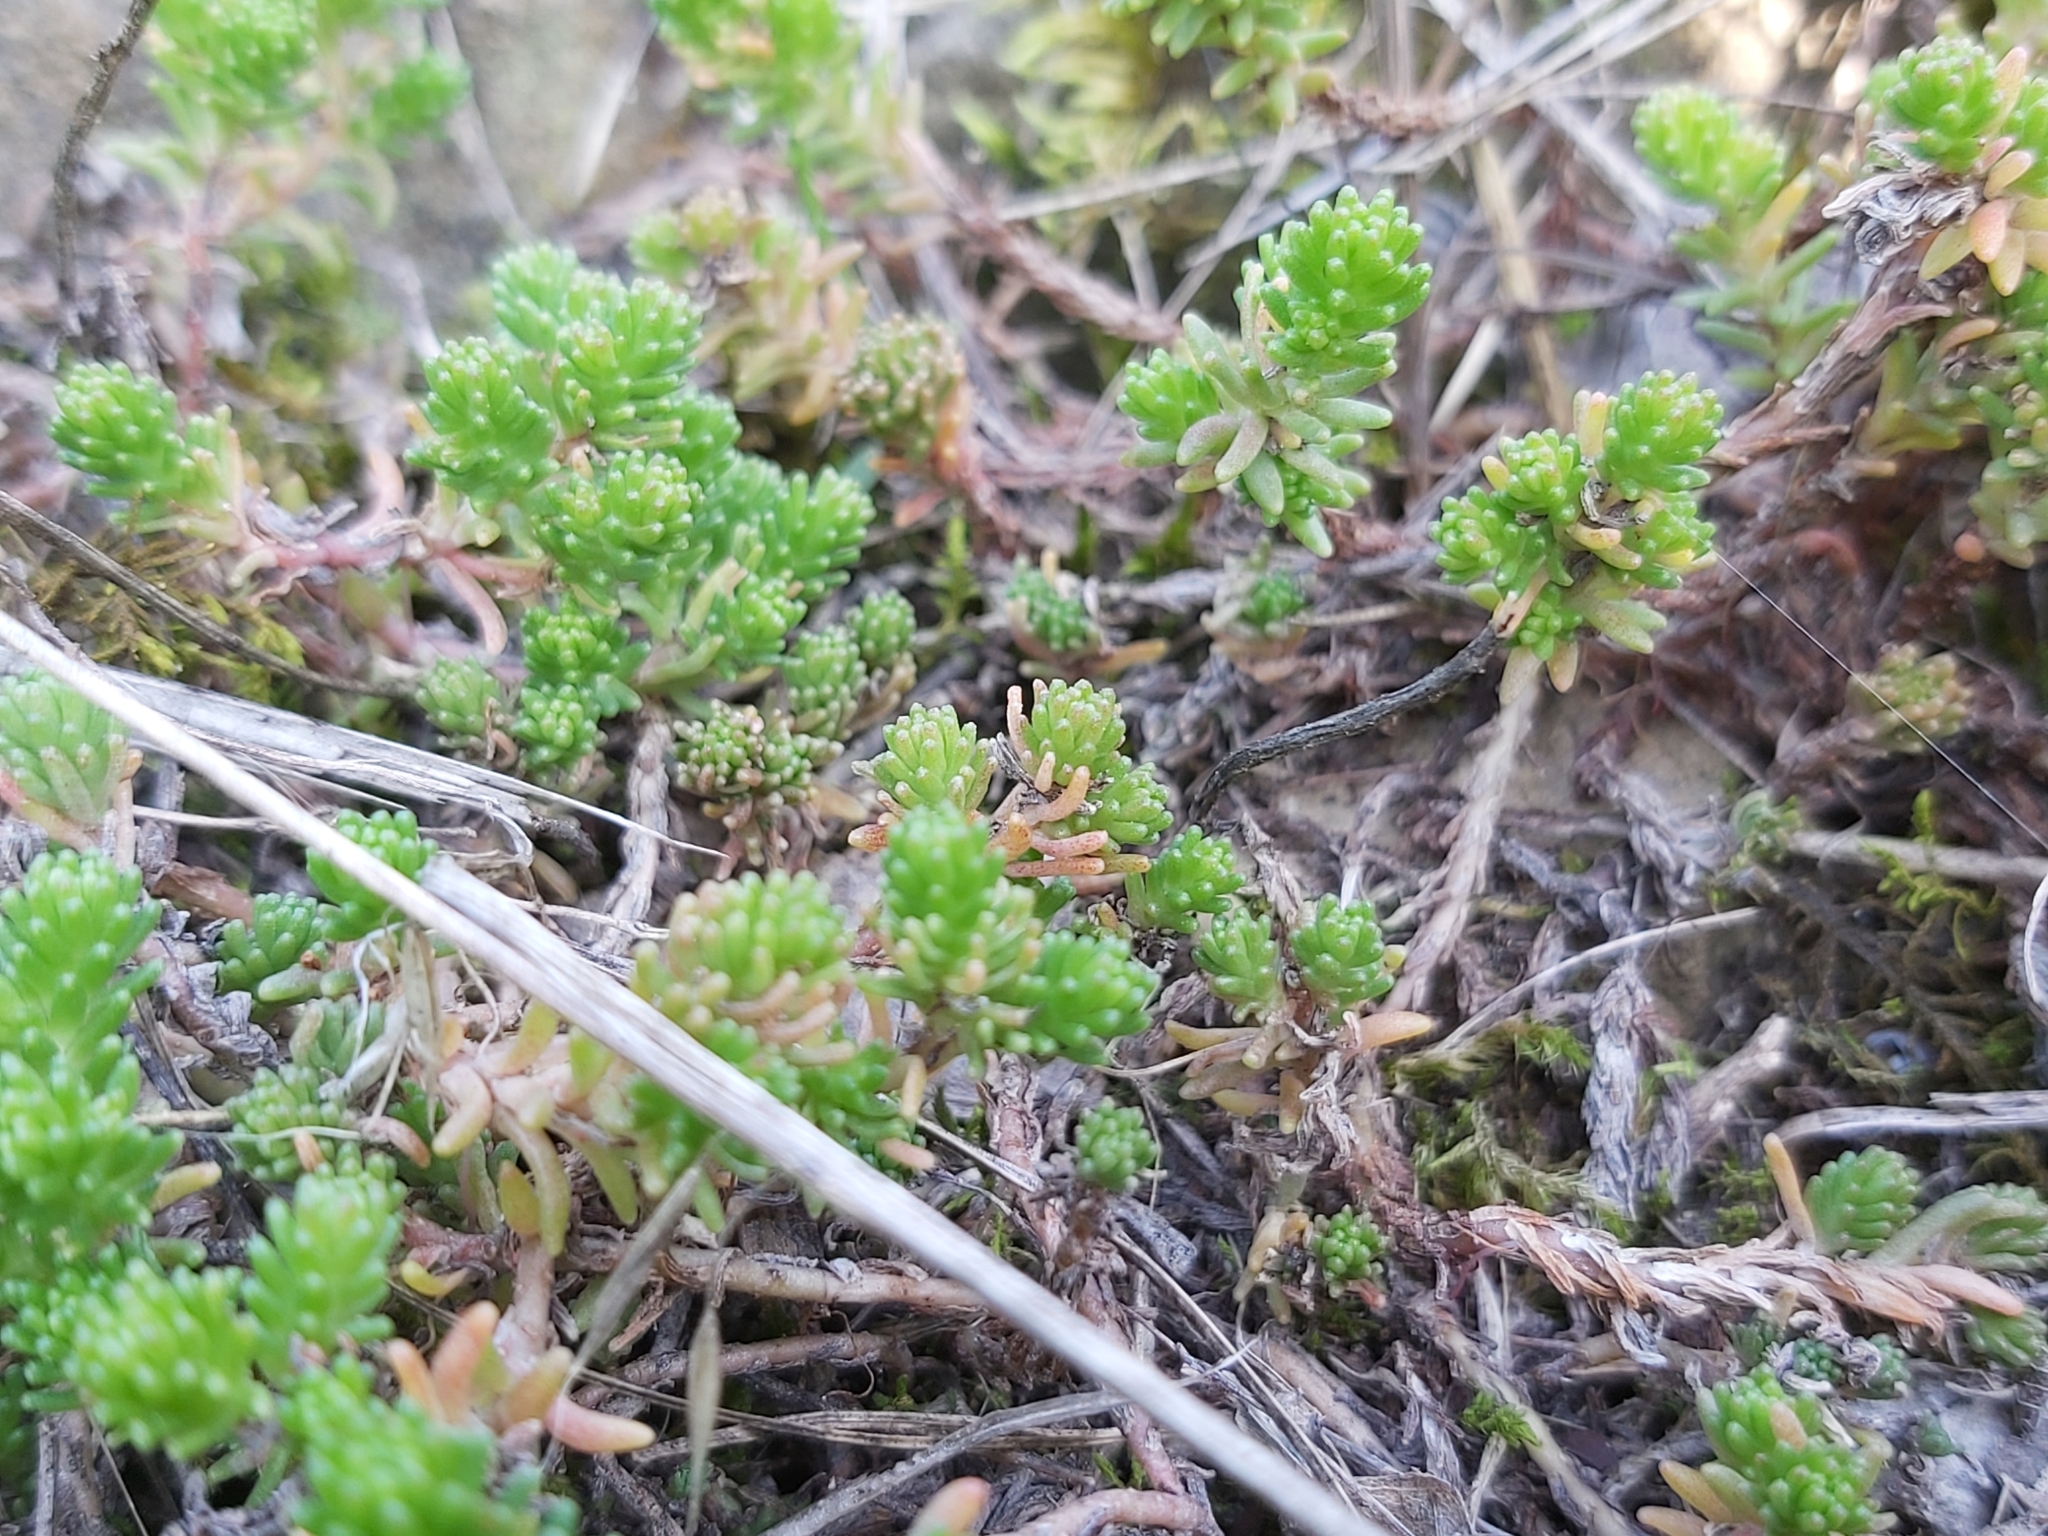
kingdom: Plantae
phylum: Tracheophyta
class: Magnoliopsida
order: Saxifragales
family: Crassulaceae
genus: Sedum
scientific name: Sedum sexangulare
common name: Tasteless stonecrop
